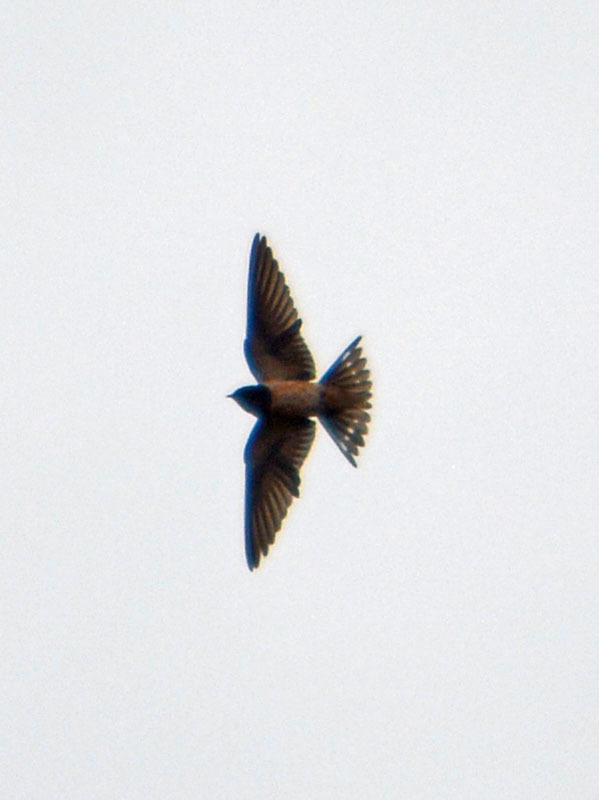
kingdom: Animalia
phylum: Chordata
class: Aves
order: Passeriformes
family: Hirundinidae
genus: Hirundo
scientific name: Hirundo rustica
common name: Barn swallow
